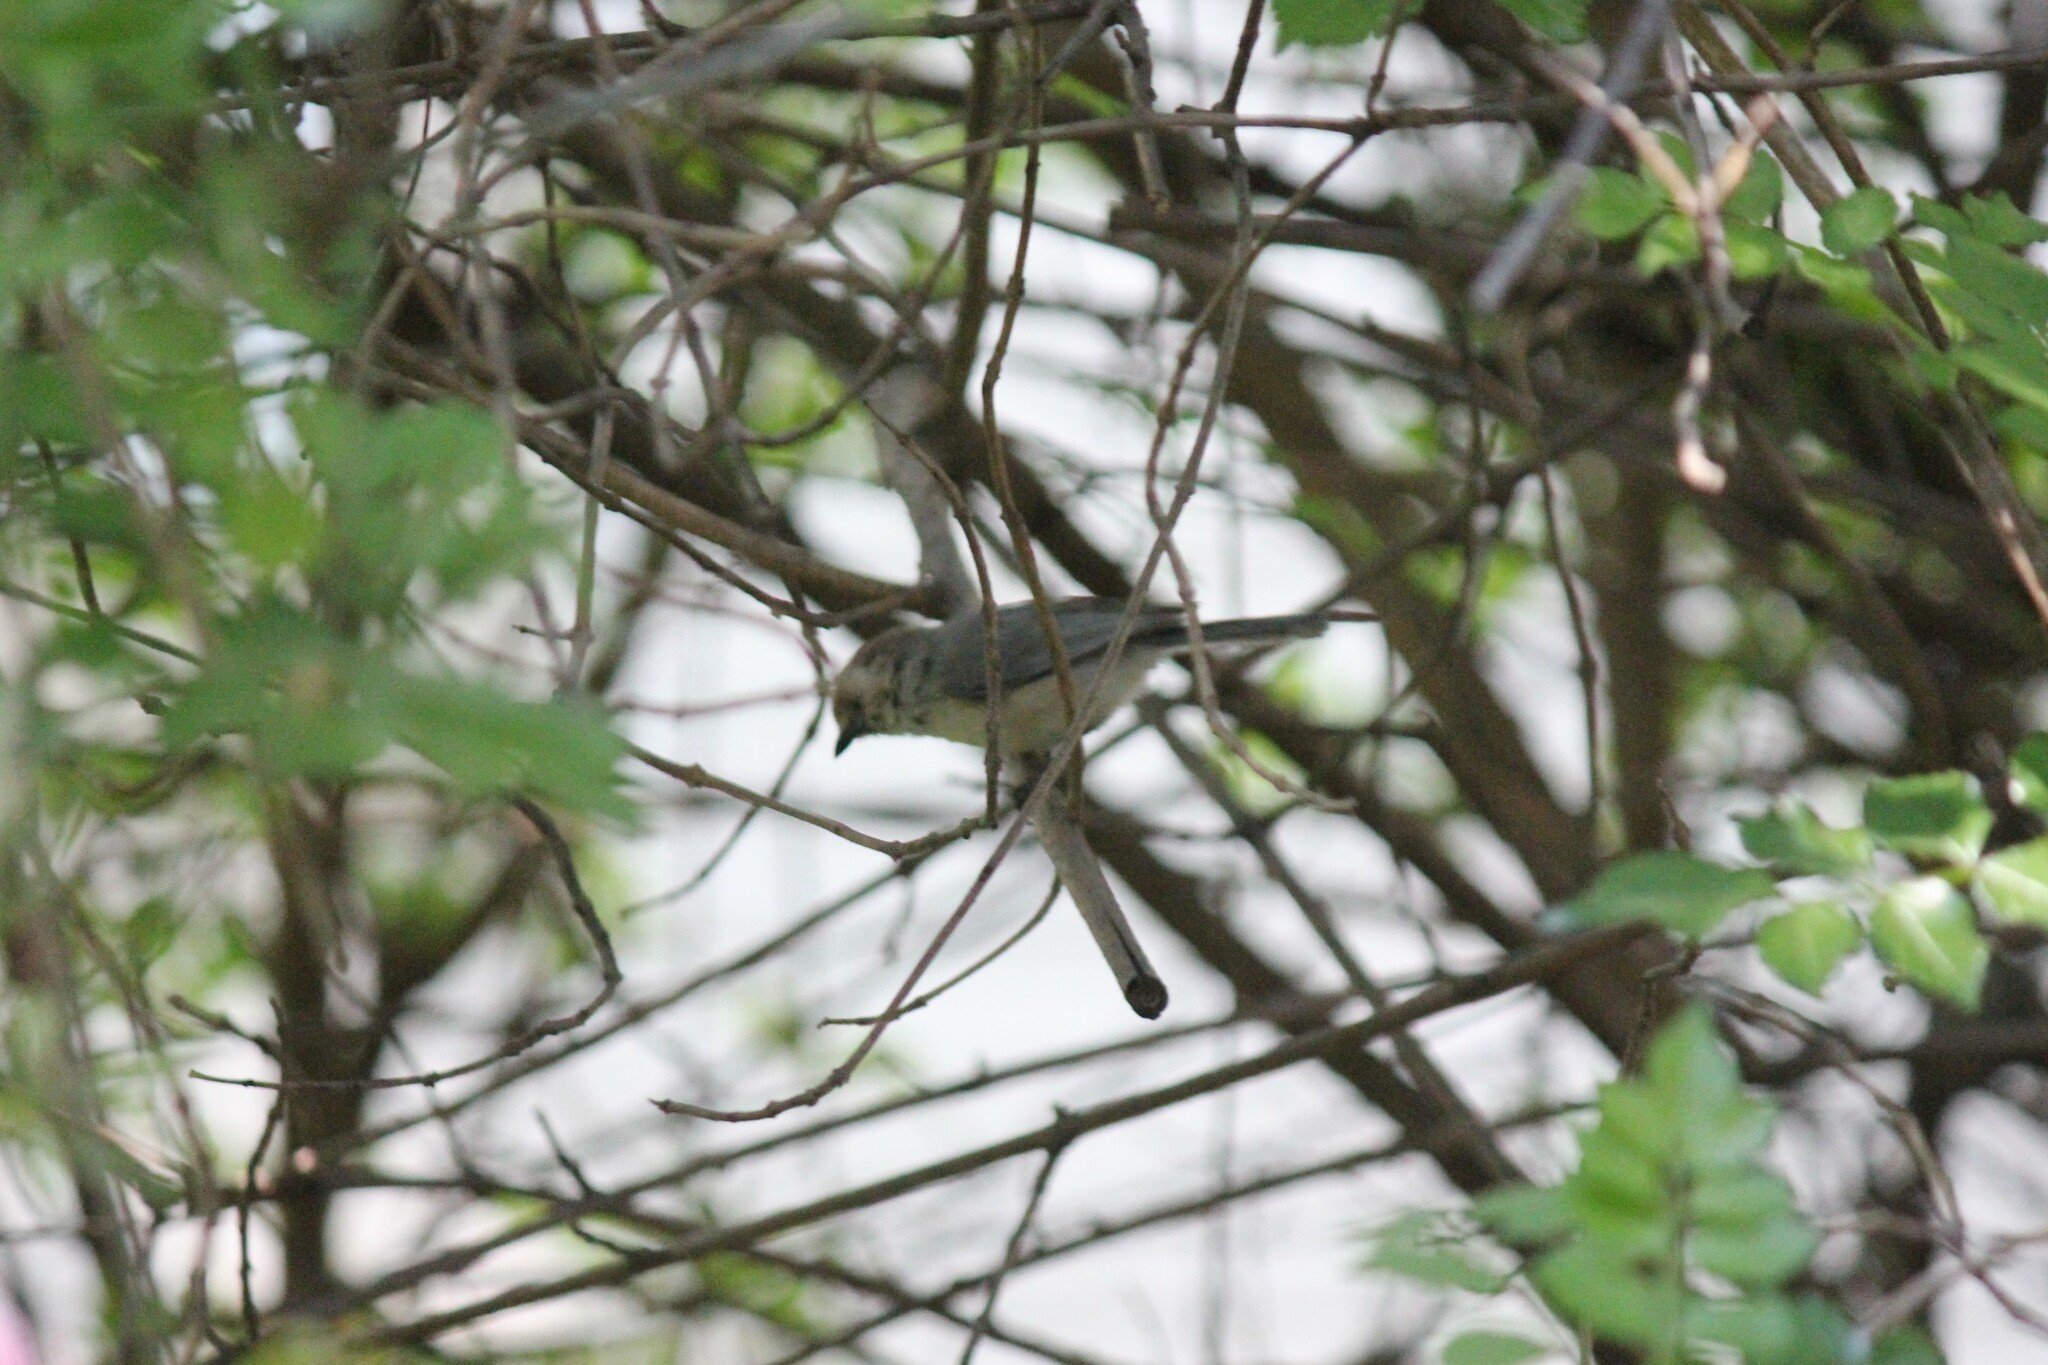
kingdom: Animalia
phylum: Chordata
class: Aves
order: Passeriformes
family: Aegithalidae
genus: Psaltriparus
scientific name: Psaltriparus minimus
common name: American bushtit
